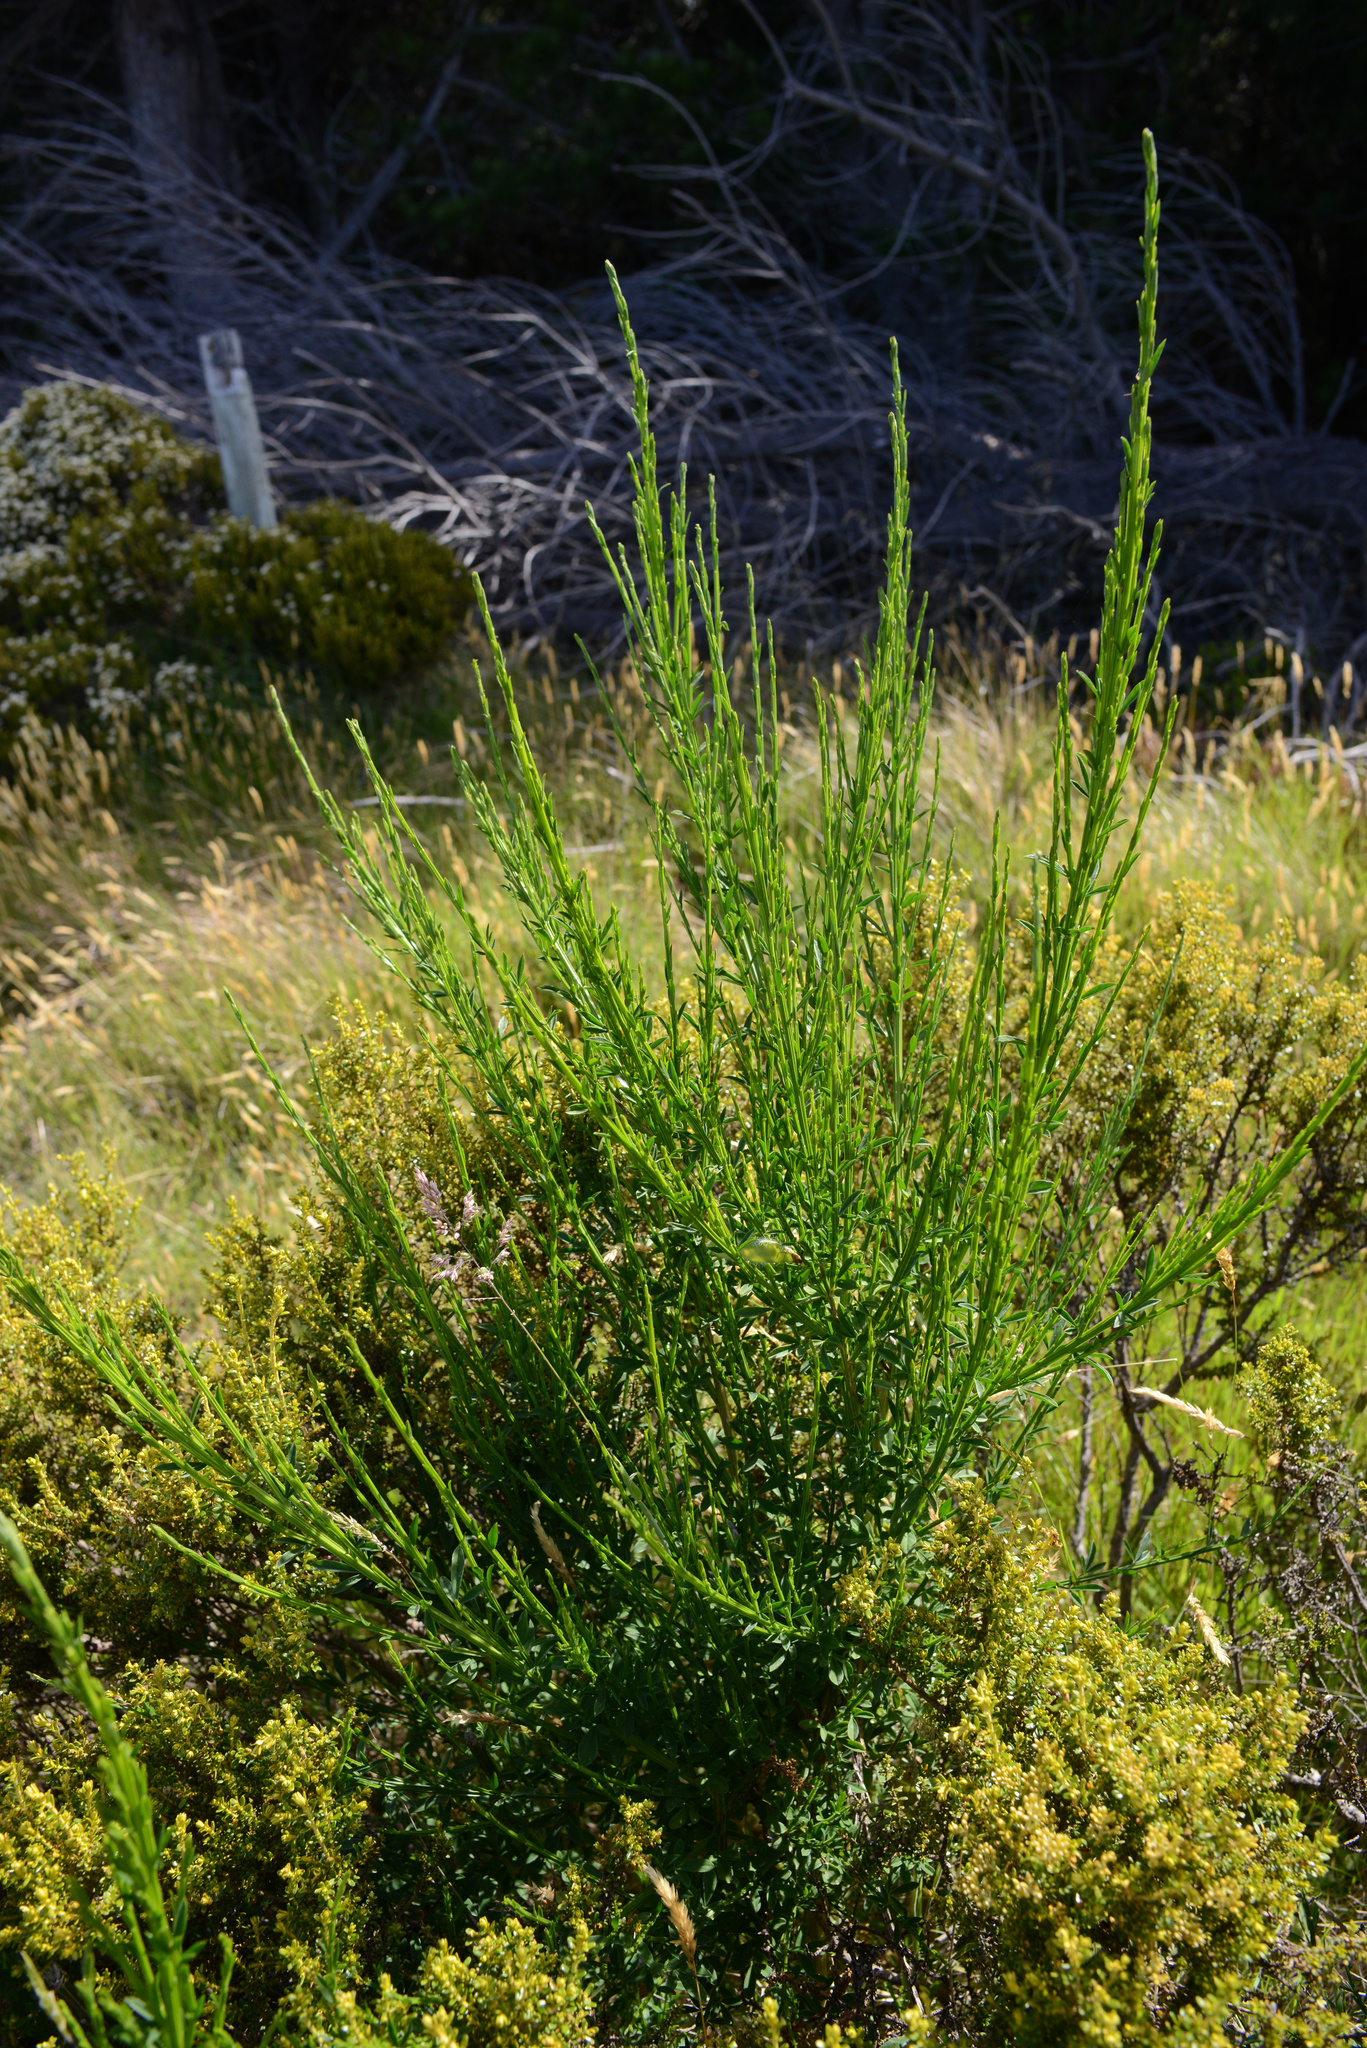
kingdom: Plantae
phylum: Tracheophyta
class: Magnoliopsida
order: Fabales
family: Fabaceae
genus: Cytisus
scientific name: Cytisus scoparius
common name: Scotch broom
